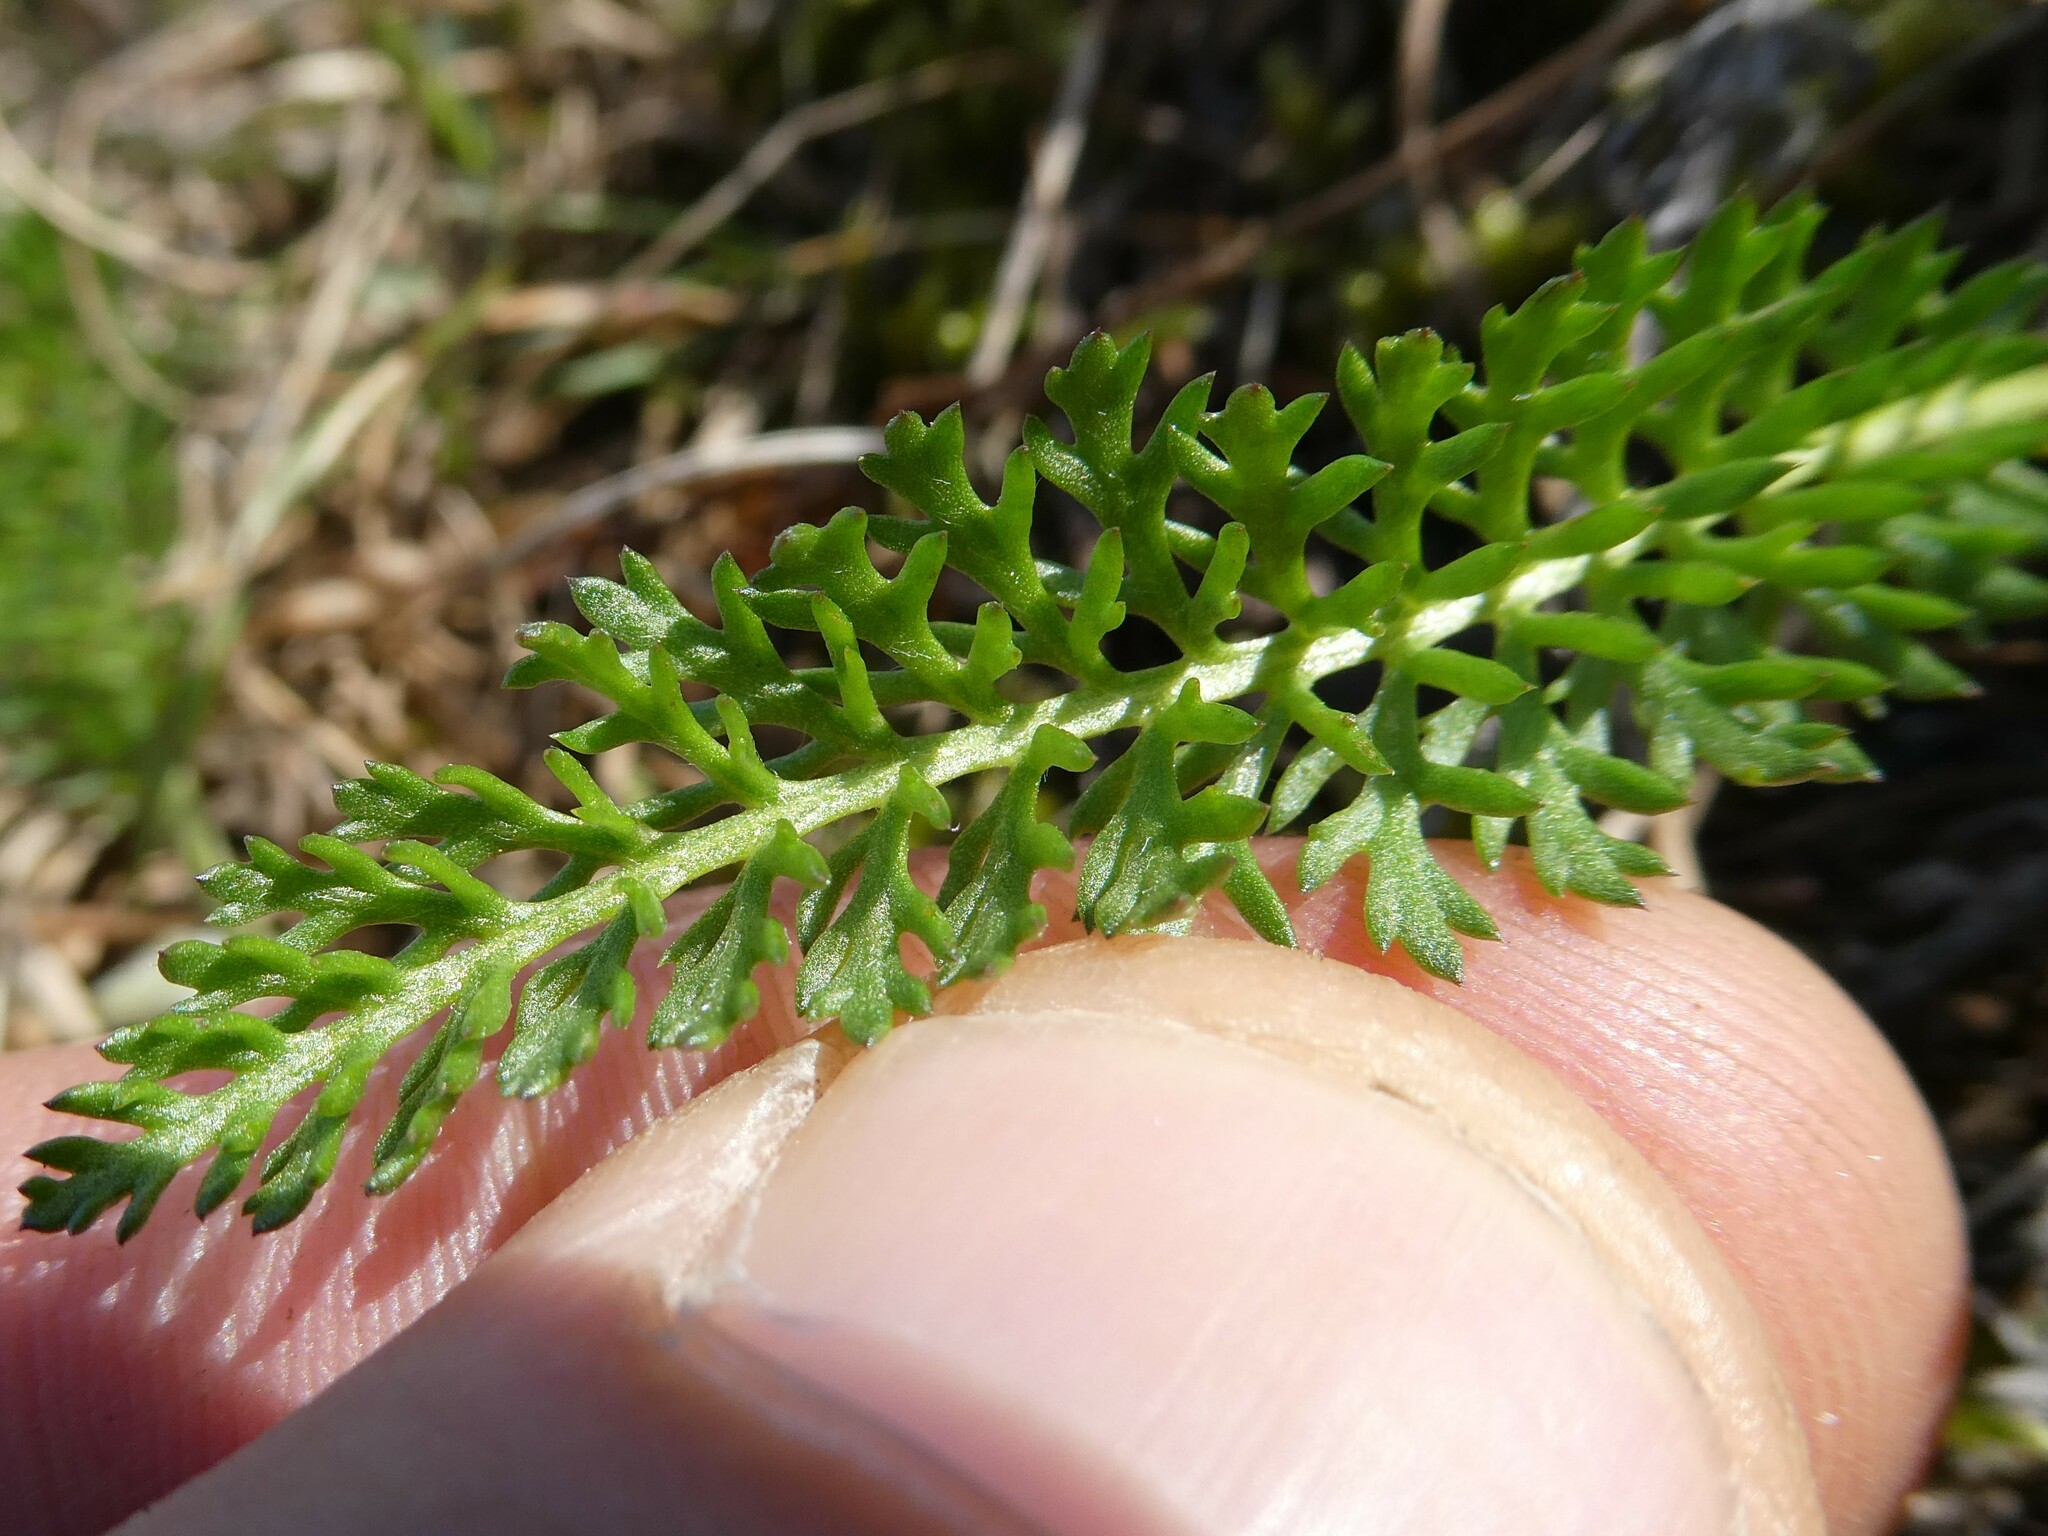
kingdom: Plantae
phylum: Tracheophyta
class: Magnoliopsida
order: Asterales
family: Asteraceae
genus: Achillea
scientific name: Achillea millefolium
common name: Yarrow
